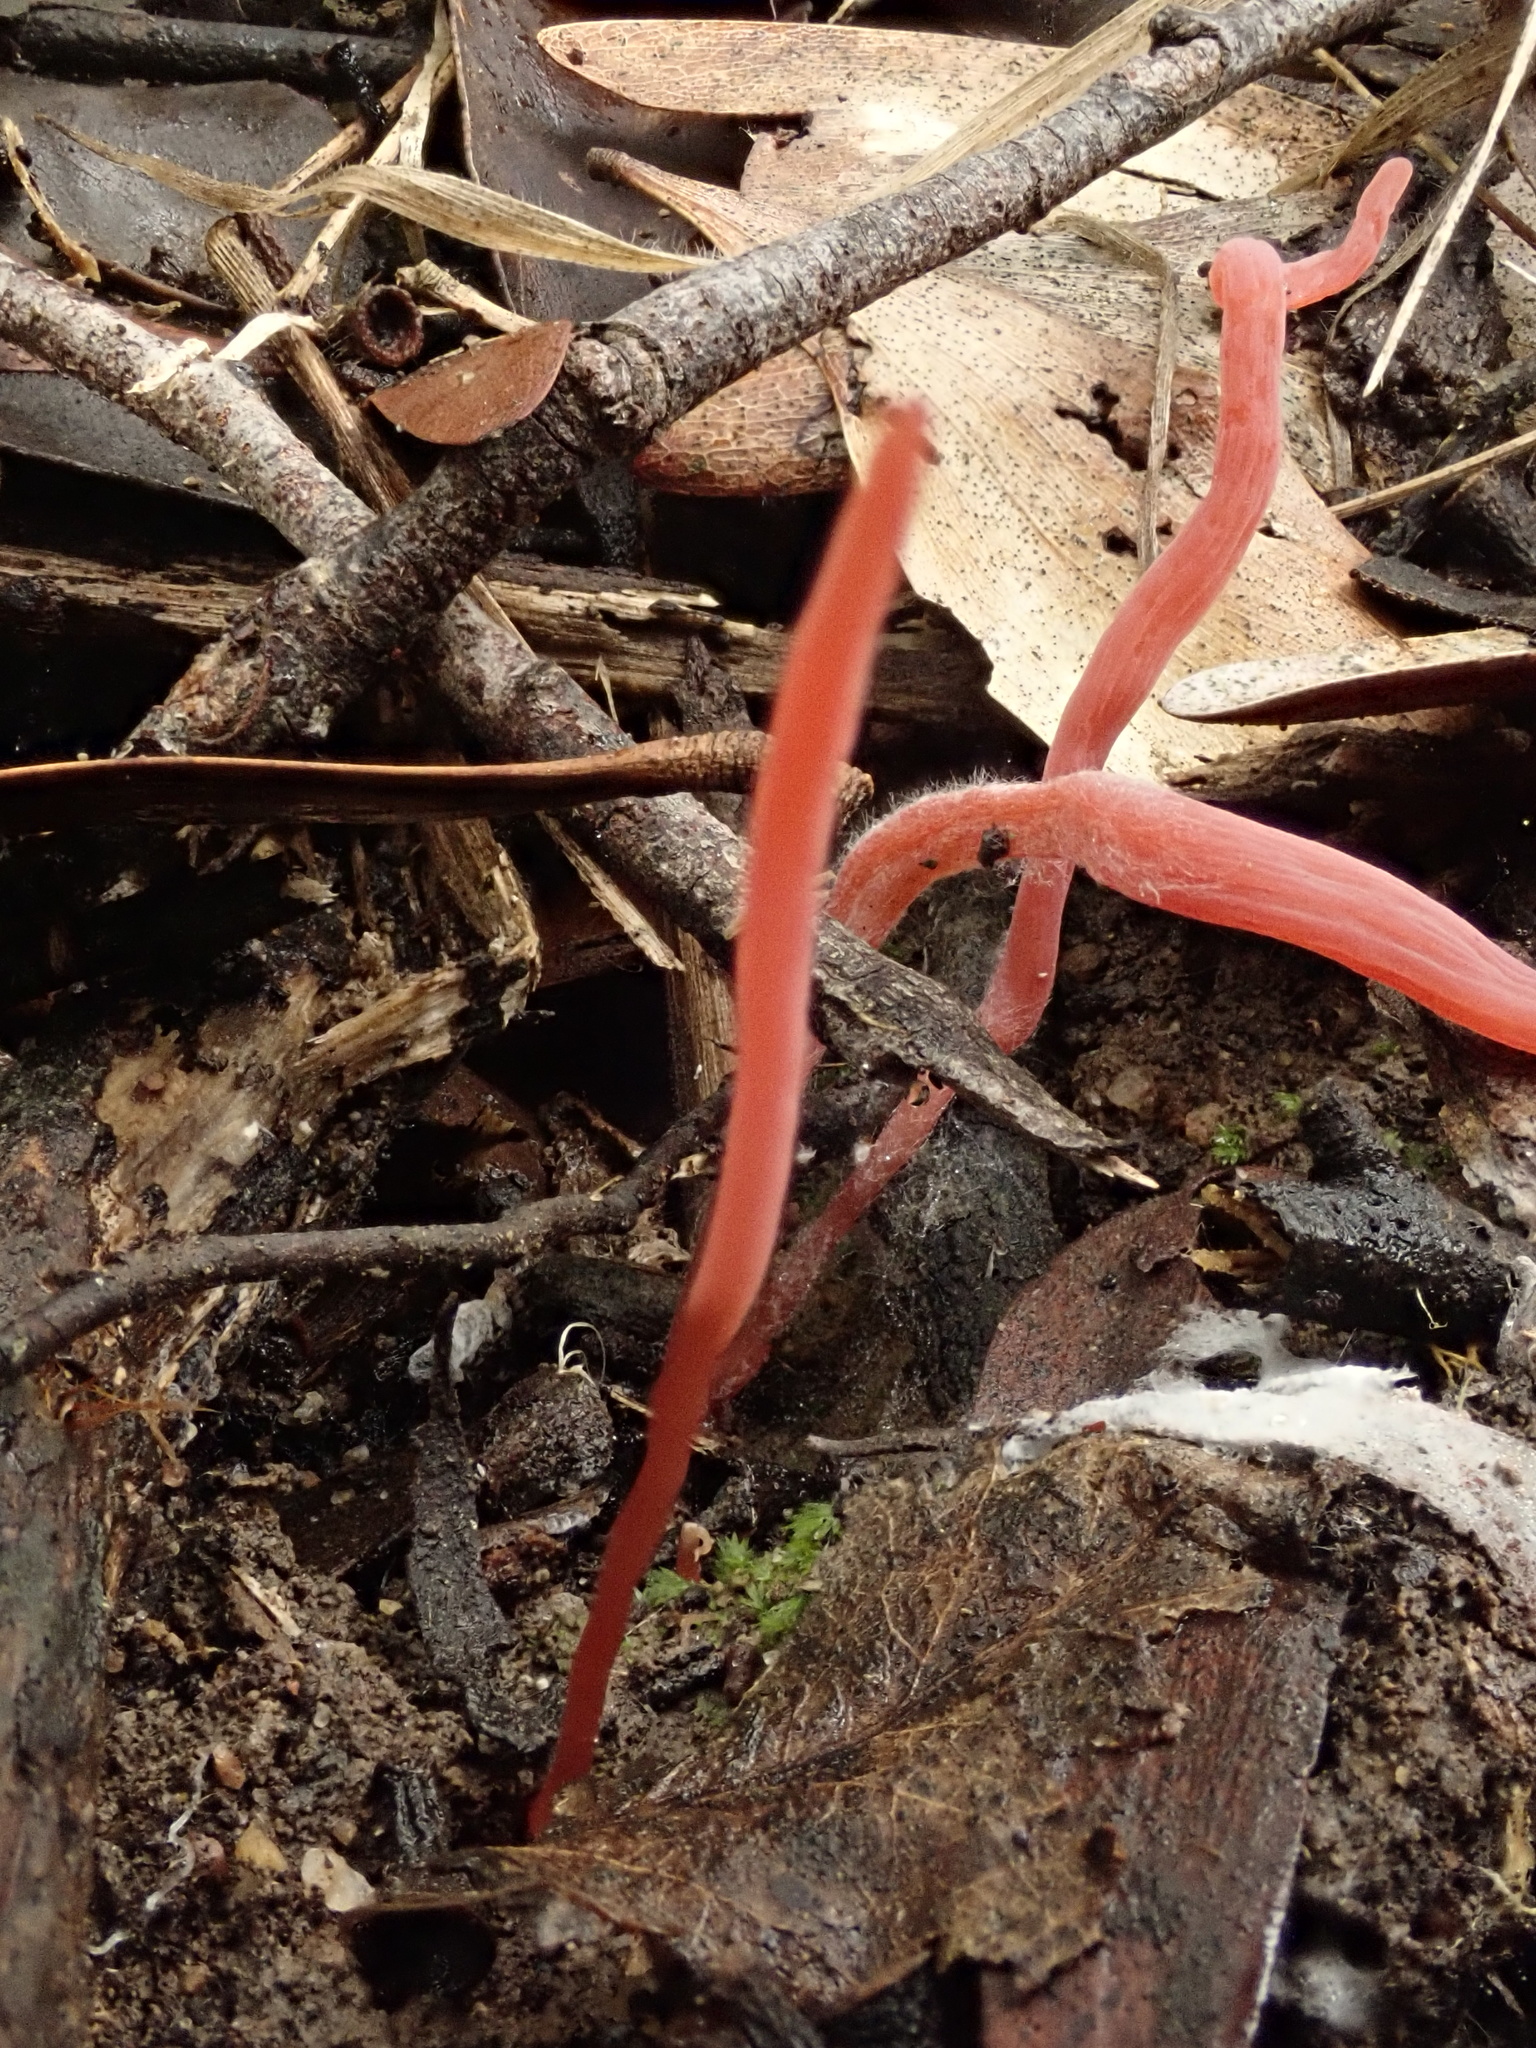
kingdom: Fungi
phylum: Basidiomycota
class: Agaricomycetes
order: Agaricales
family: Clavariaceae
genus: Clavulinopsis
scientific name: Clavulinopsis corallinorosacea
